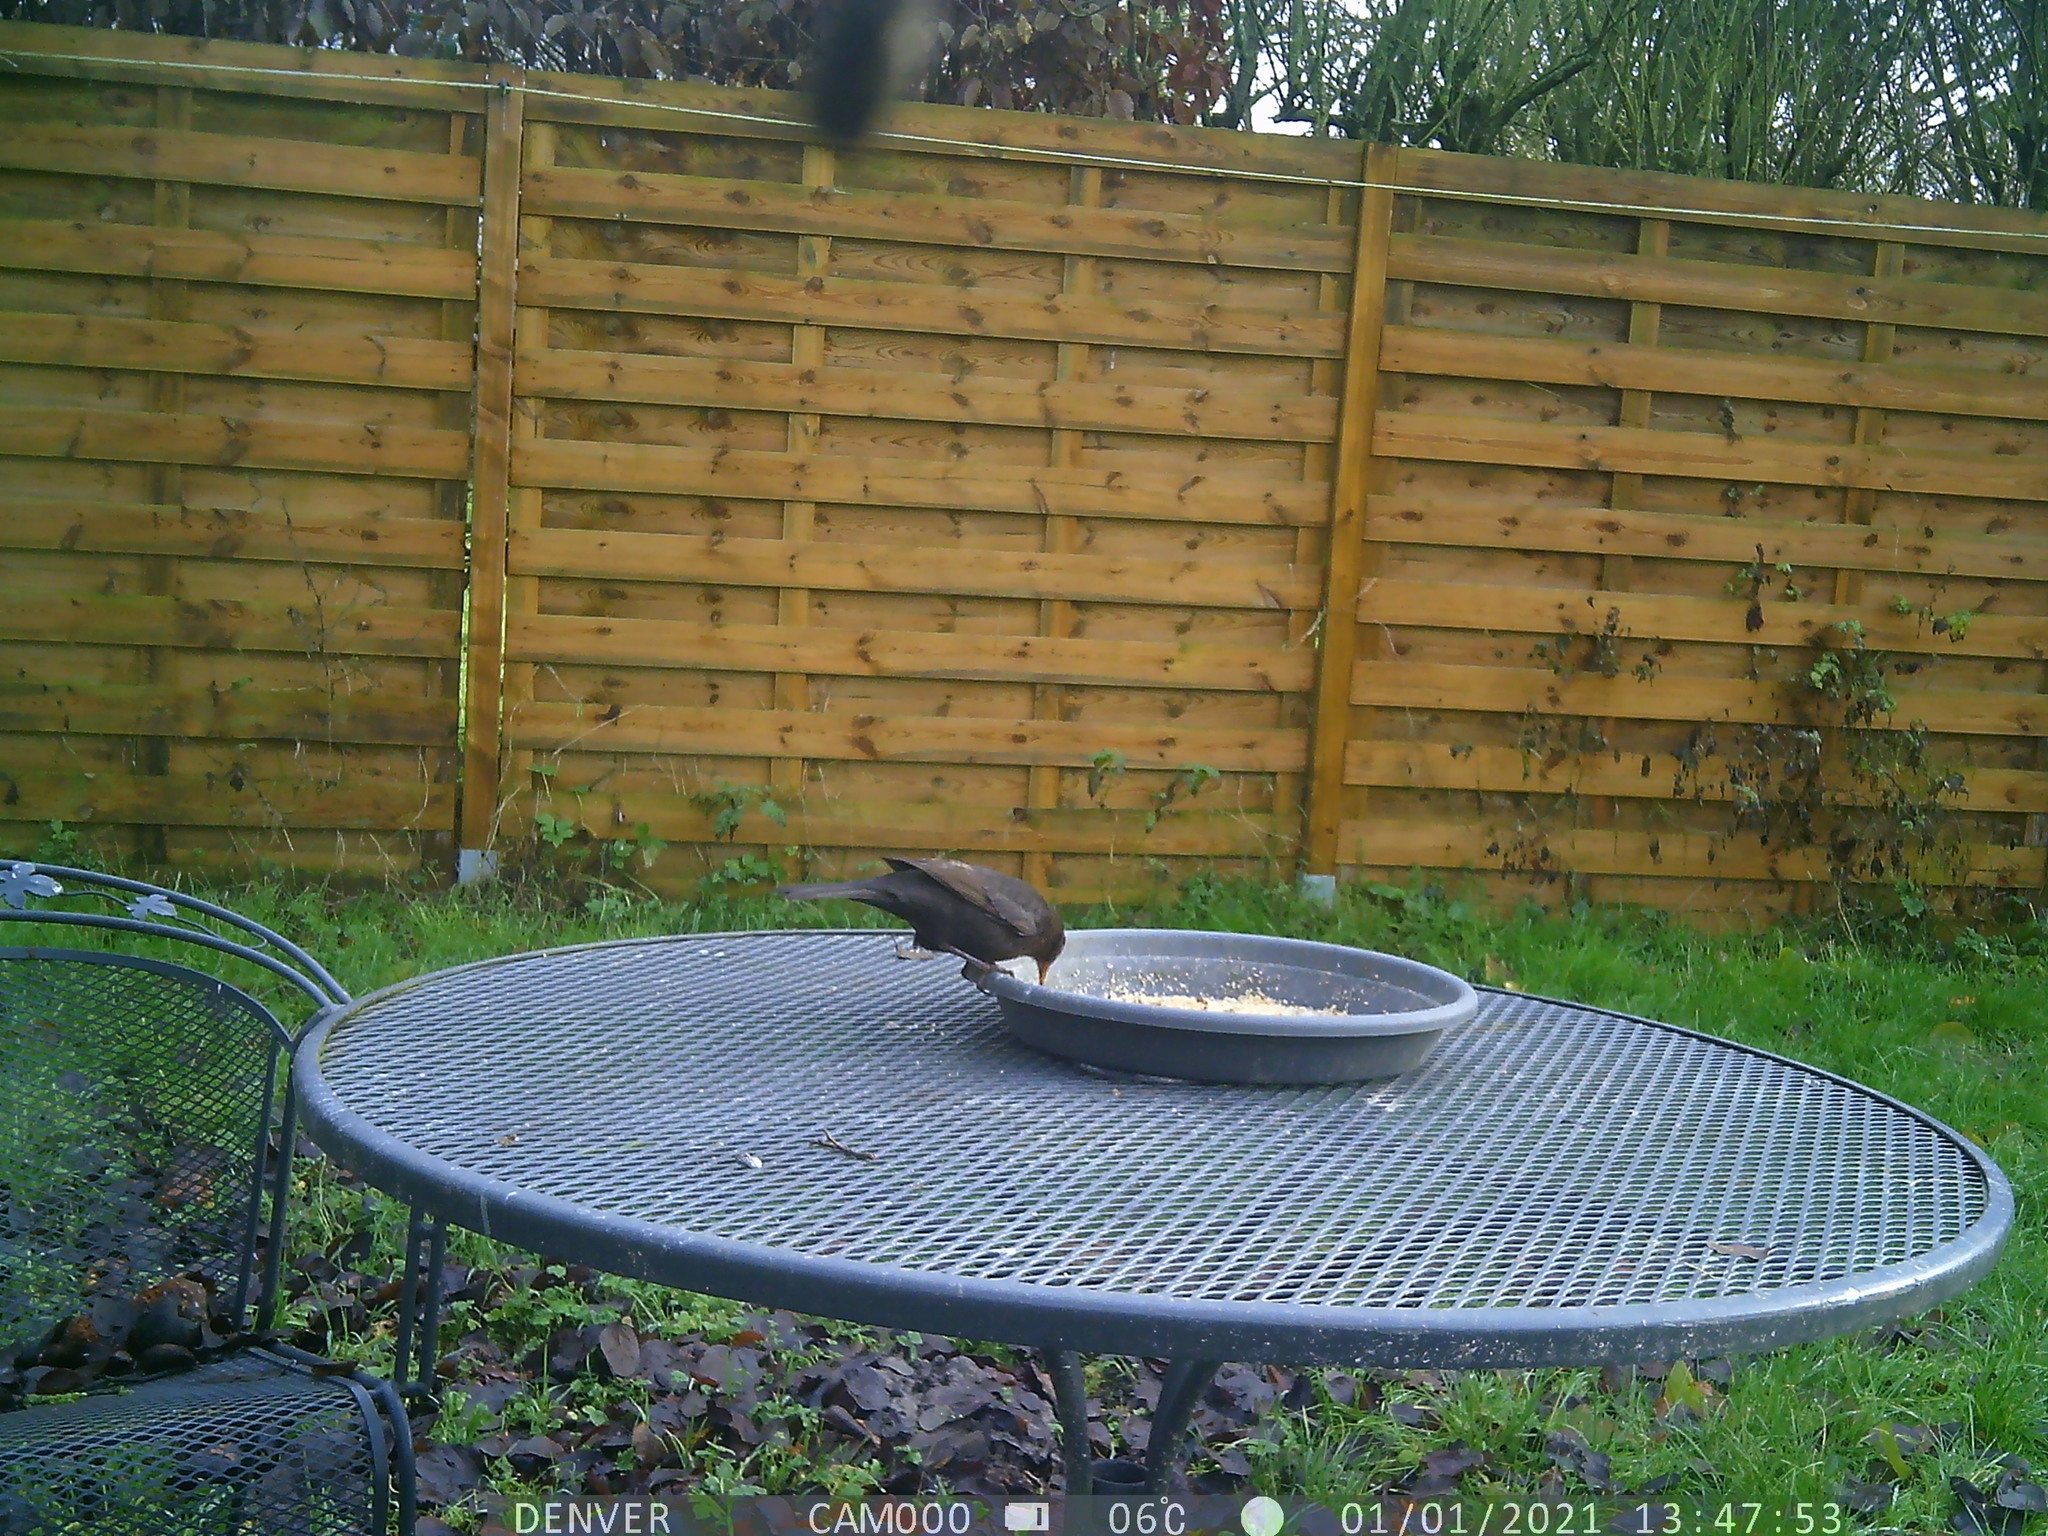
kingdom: Animalia
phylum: Chordata
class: Aves
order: Passeriformes
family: Turdidae
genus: Turdus
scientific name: Turdus merula
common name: Common blackbird
